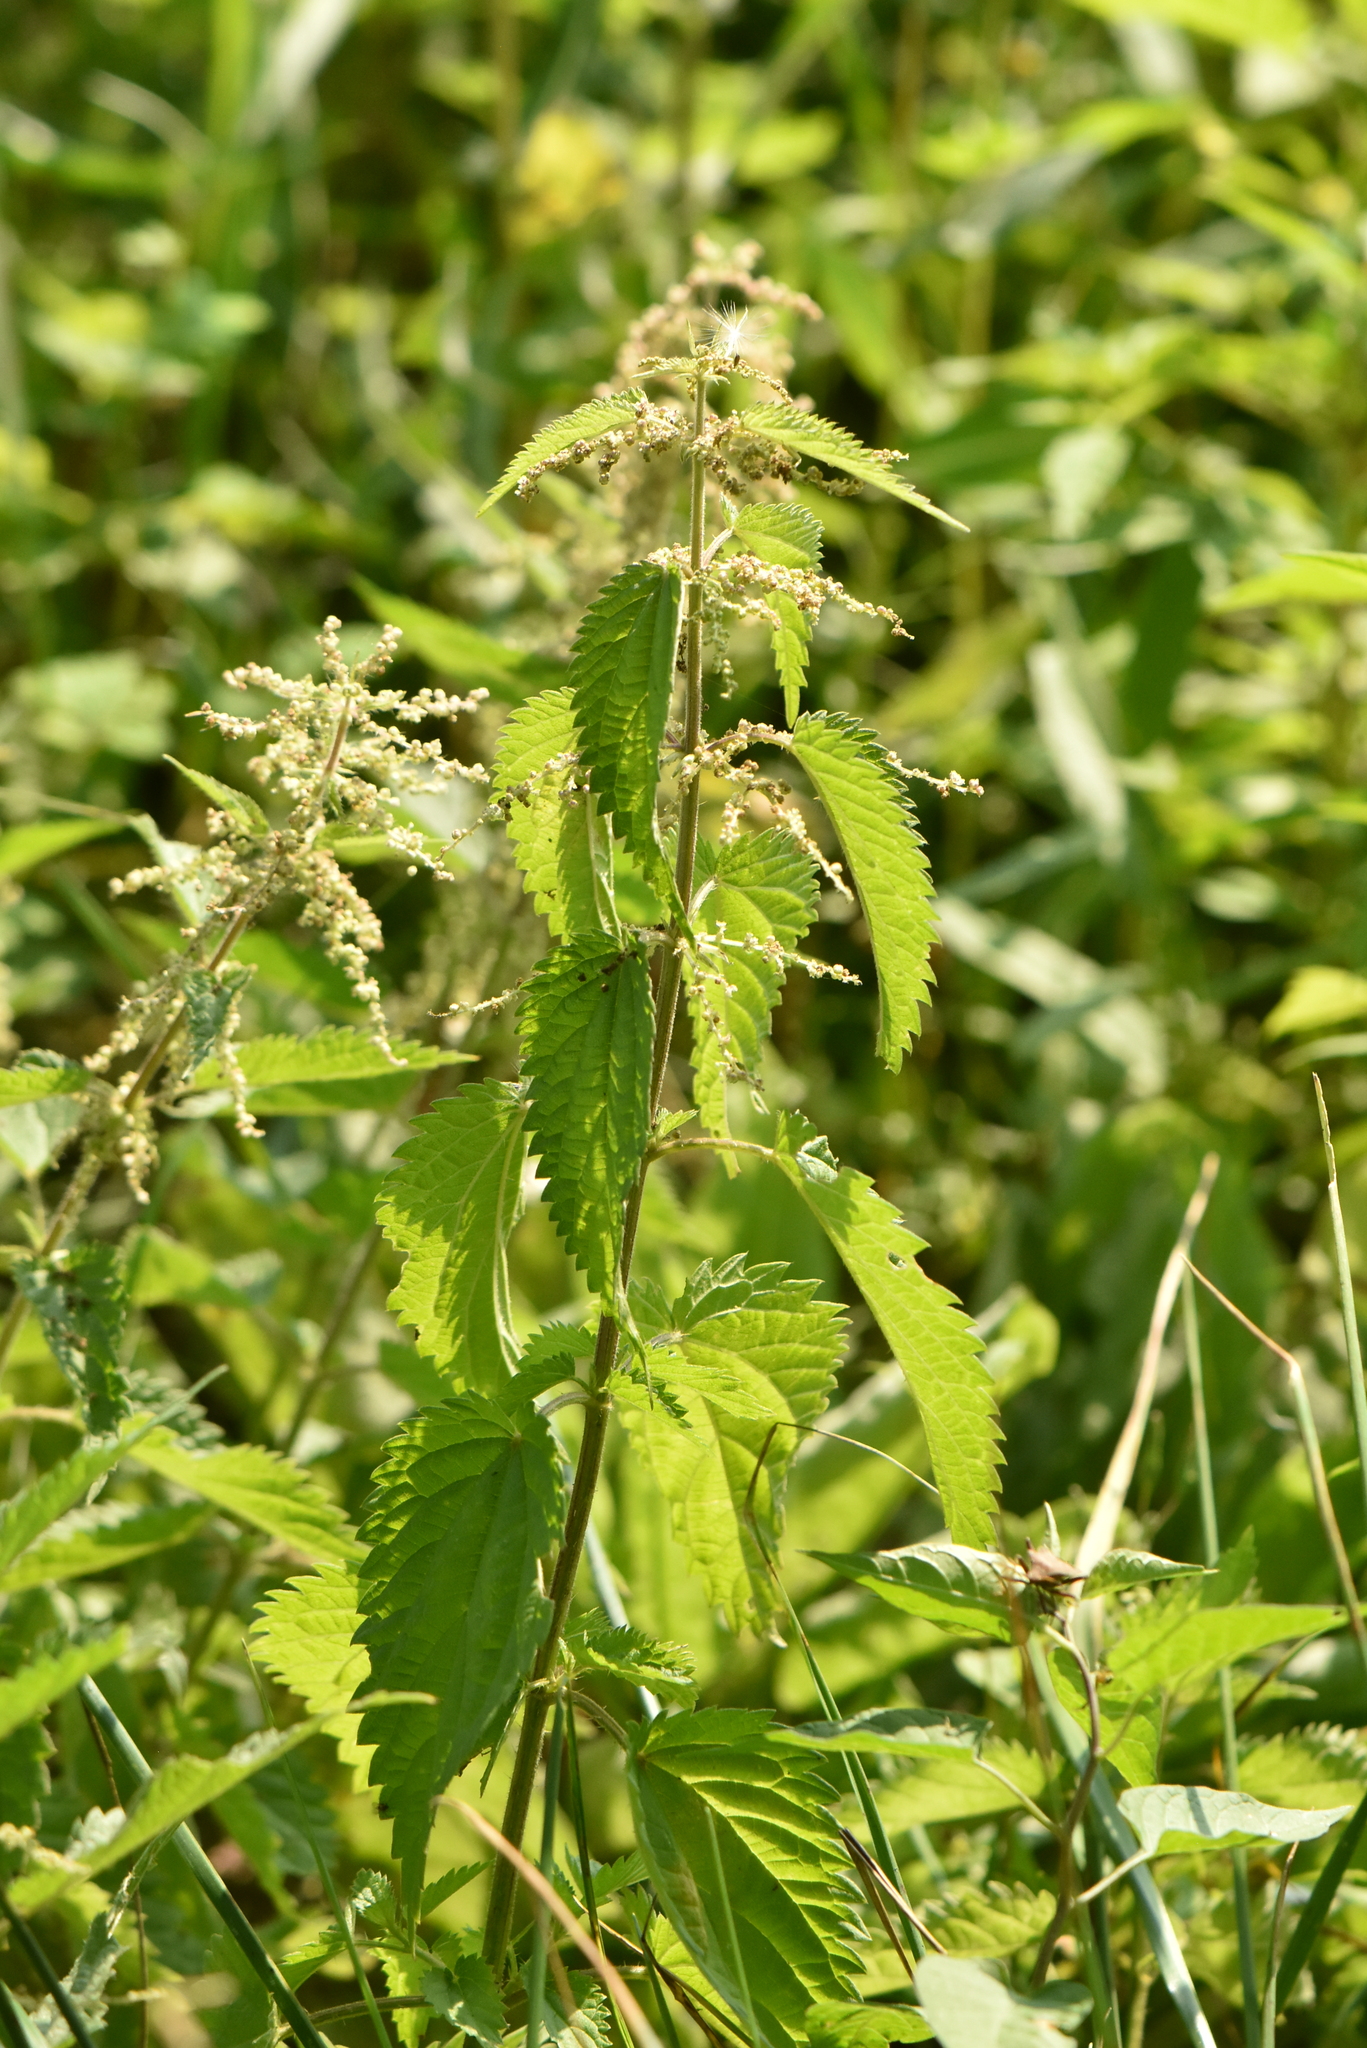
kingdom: Plantae
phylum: Tracheophyta
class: Magnoliopsida
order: Rosales
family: Urticaceae
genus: Urtica
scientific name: Urtica dioica
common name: Common nettle
